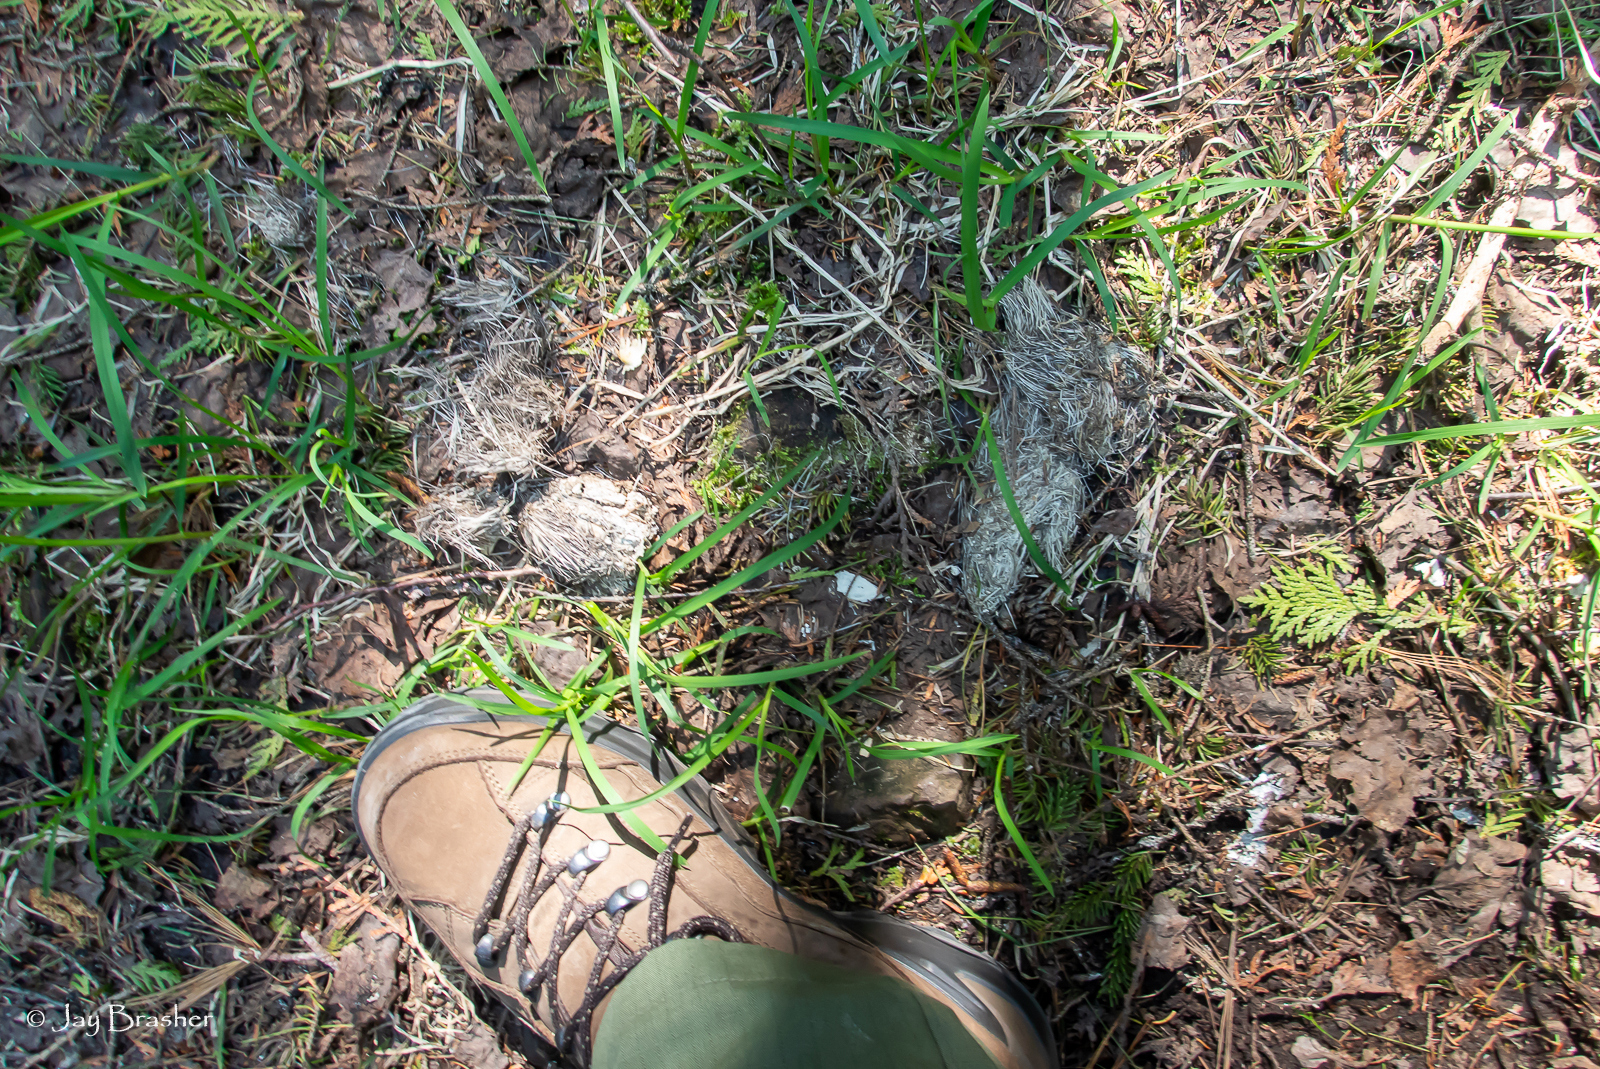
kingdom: Animalia
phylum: Chordata
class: Mammalia
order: Carnivora
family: Canidae
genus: Canis
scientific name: Canis lupus
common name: Gray wolf
